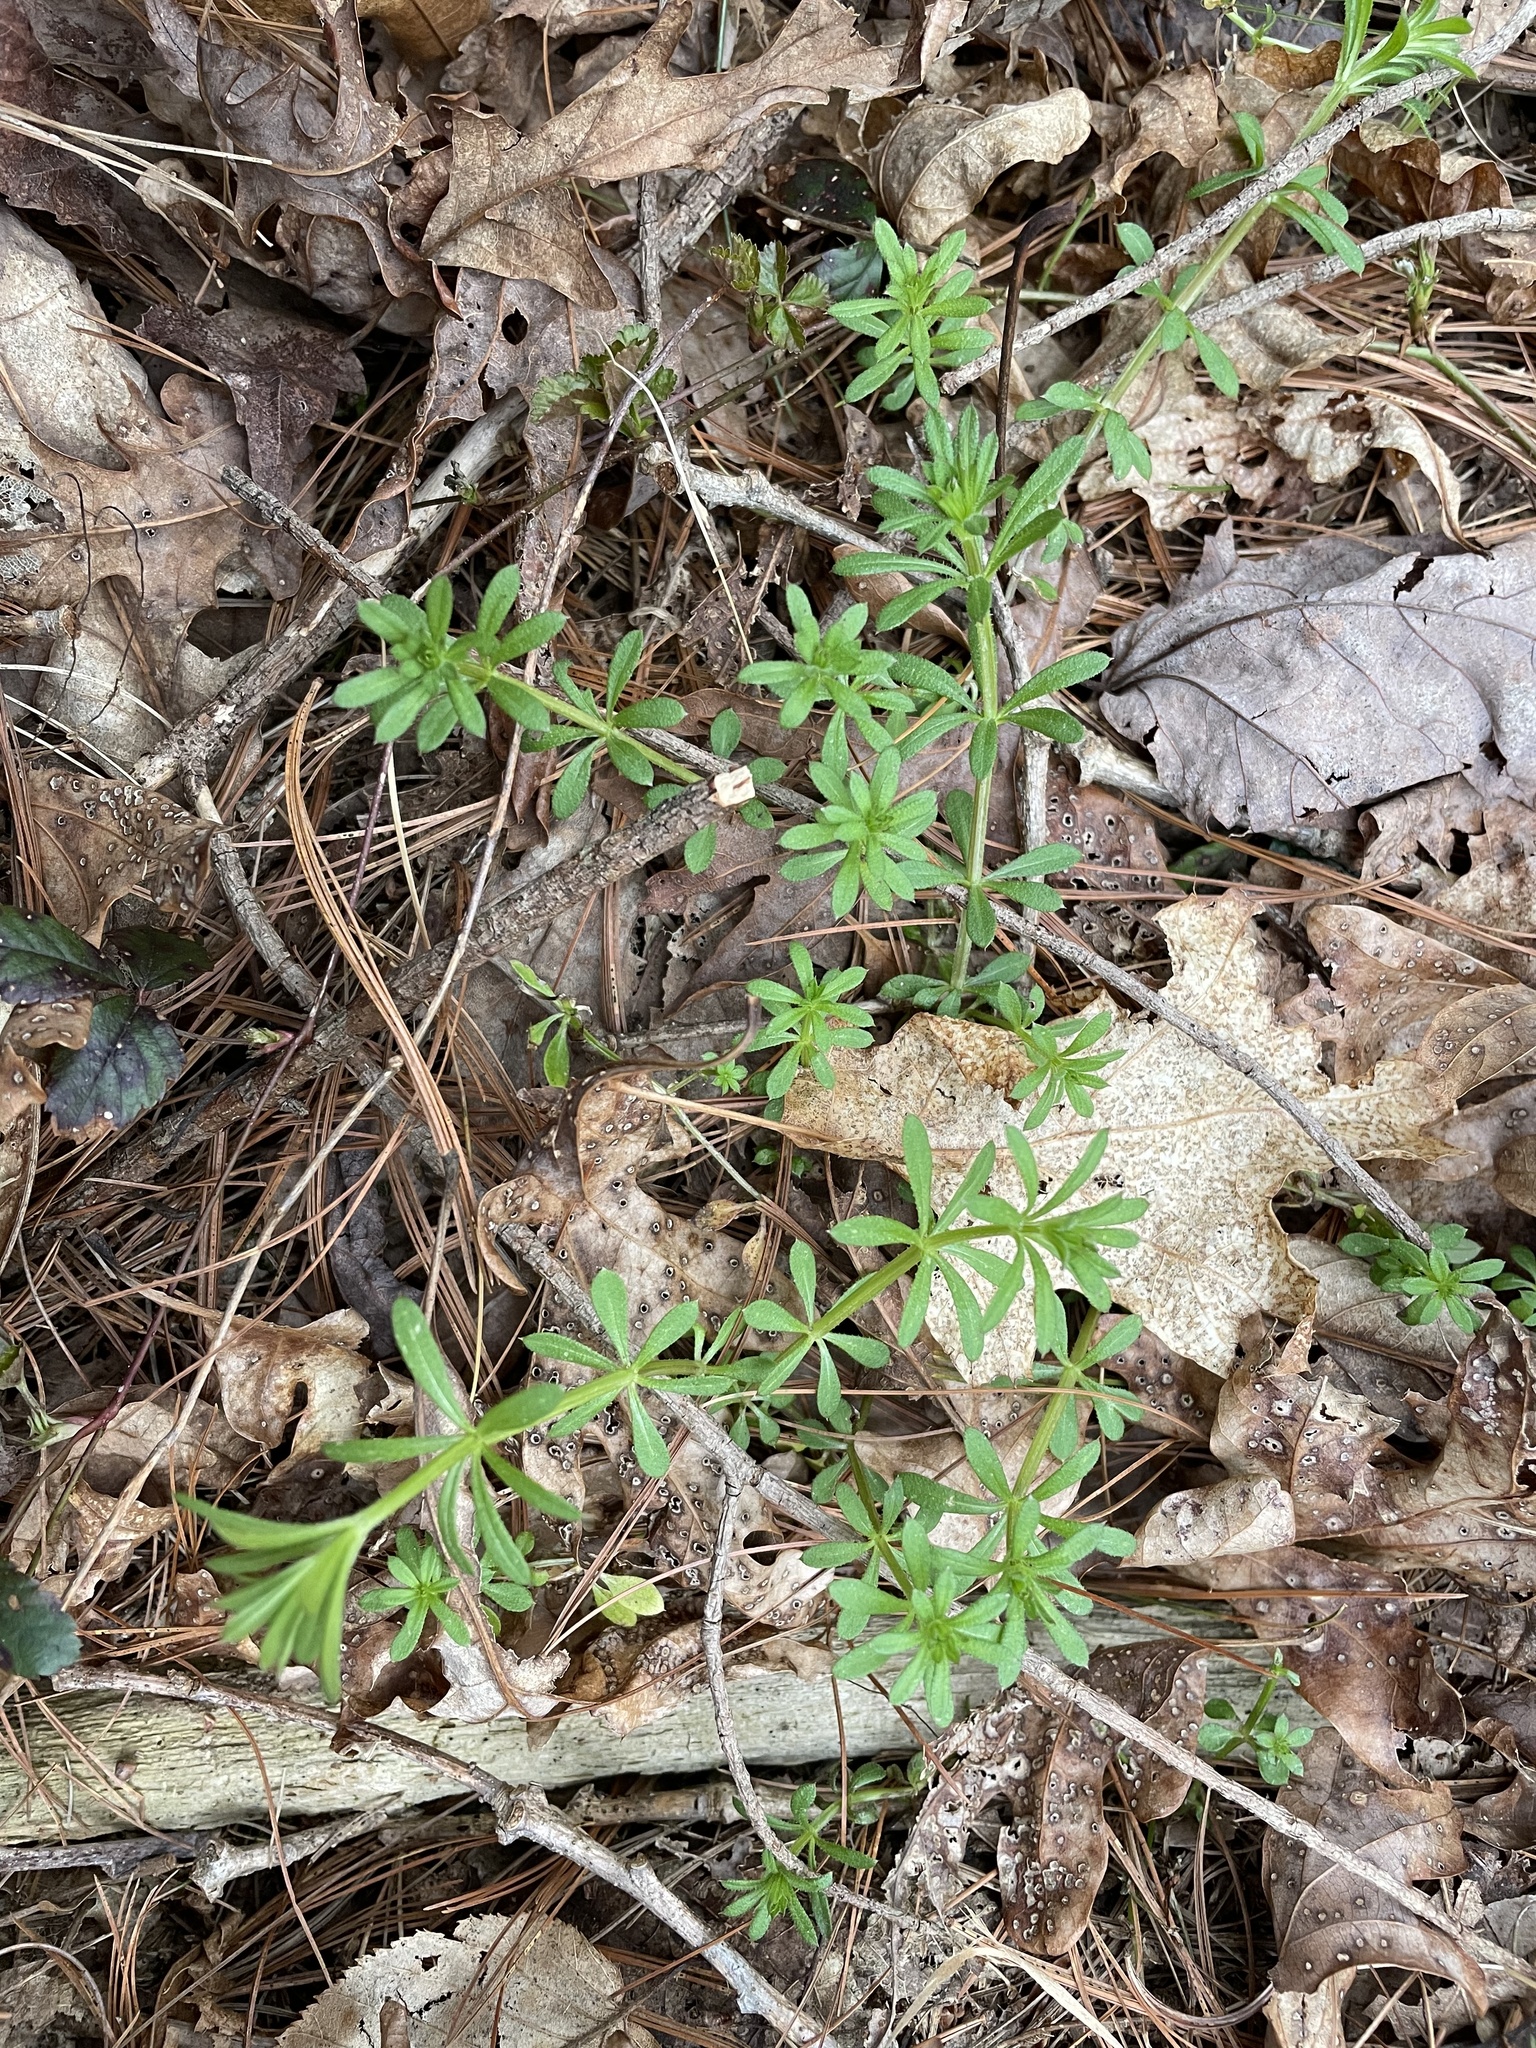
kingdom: Plantae
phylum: Tracheophyta
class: Magnoliopsida
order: Gentianales
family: Rubiaceae
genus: Galium
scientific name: Galium aparine
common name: Cleavers
